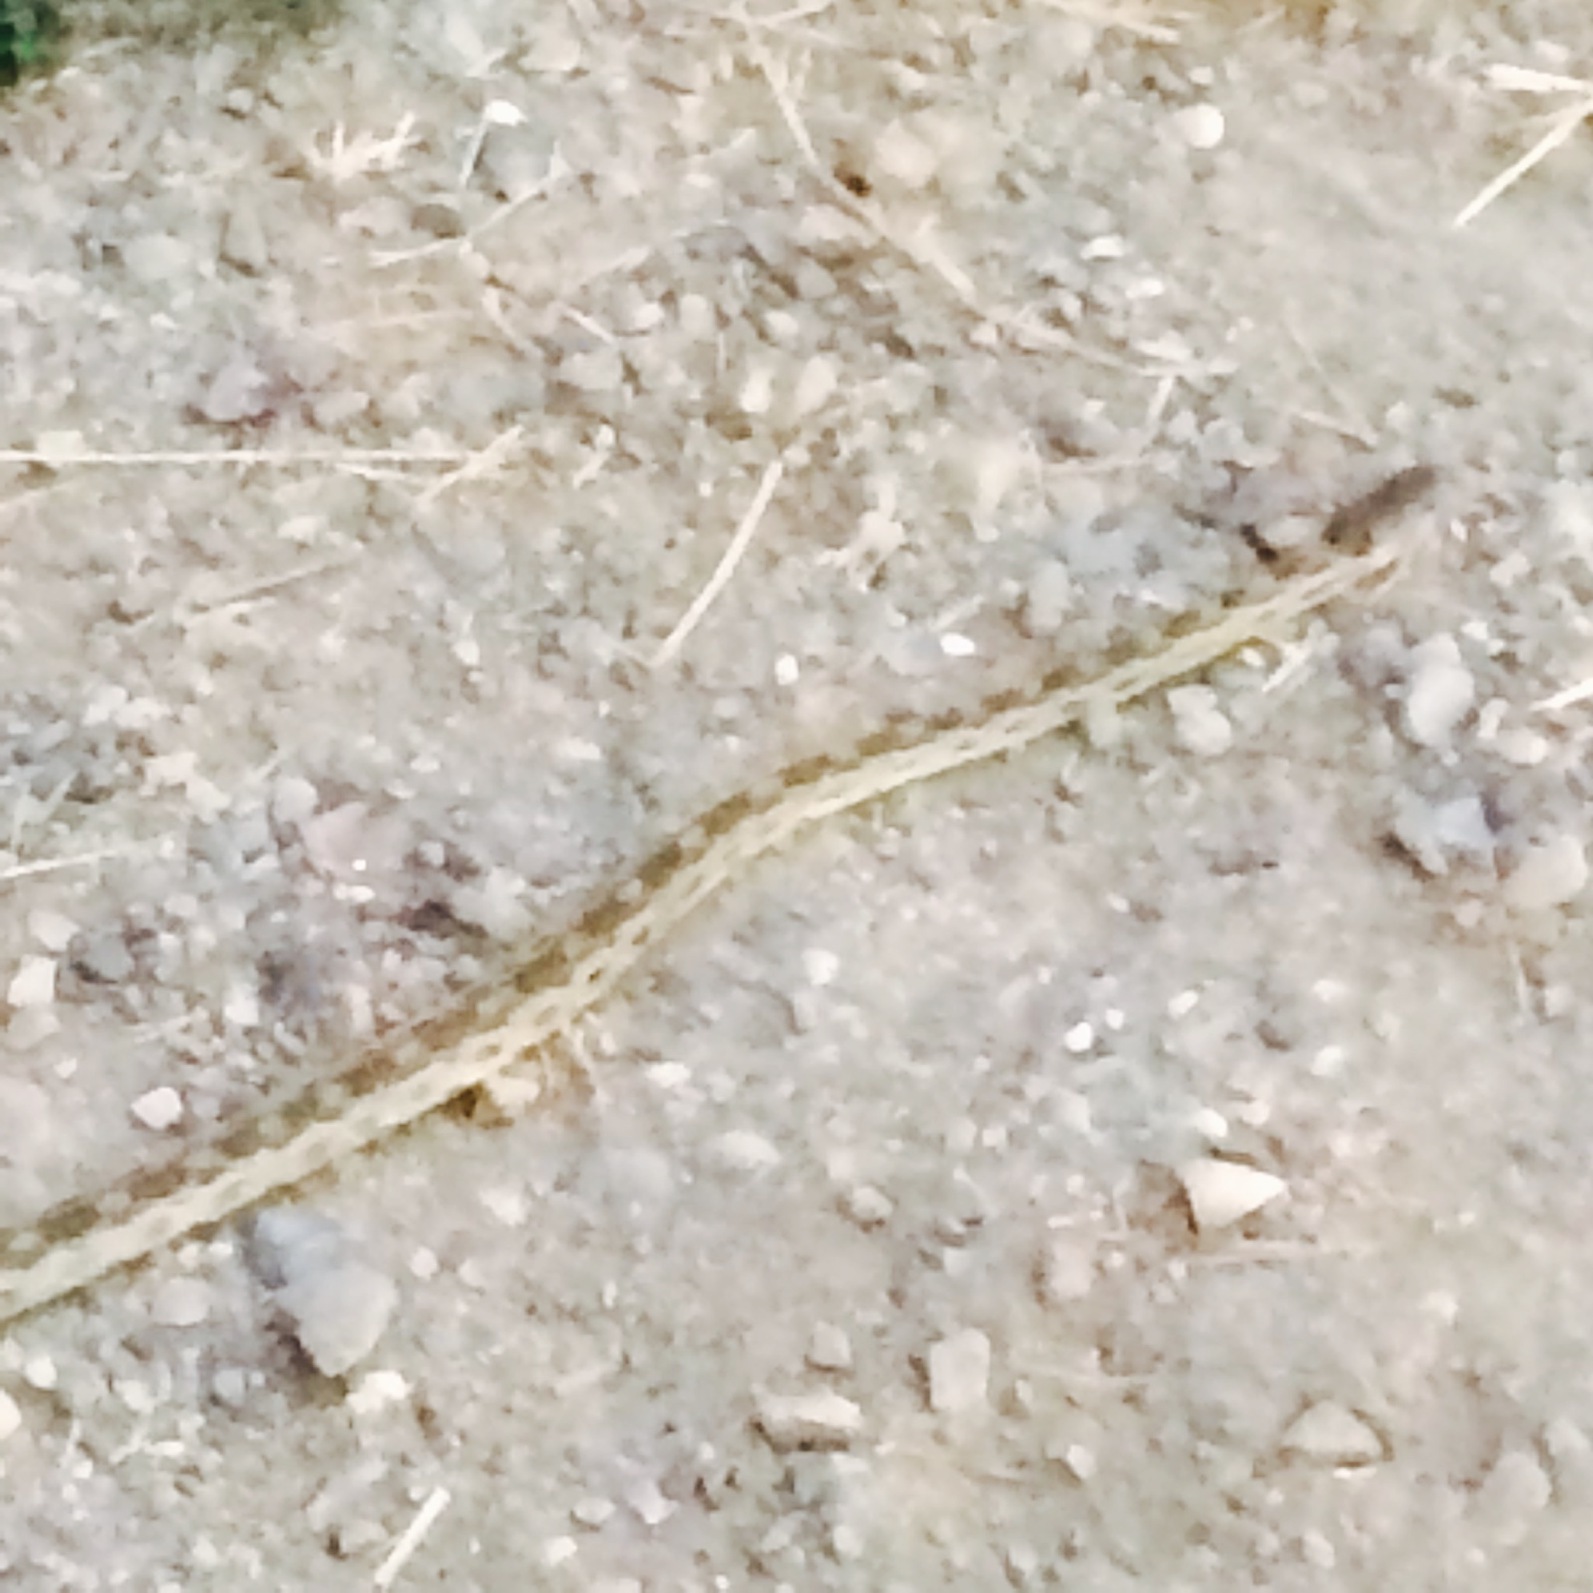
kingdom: Animalia
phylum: Chordata
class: Squamata
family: Colubridae
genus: Pituophis
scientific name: Pituophis catenifer
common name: Gopher snake
